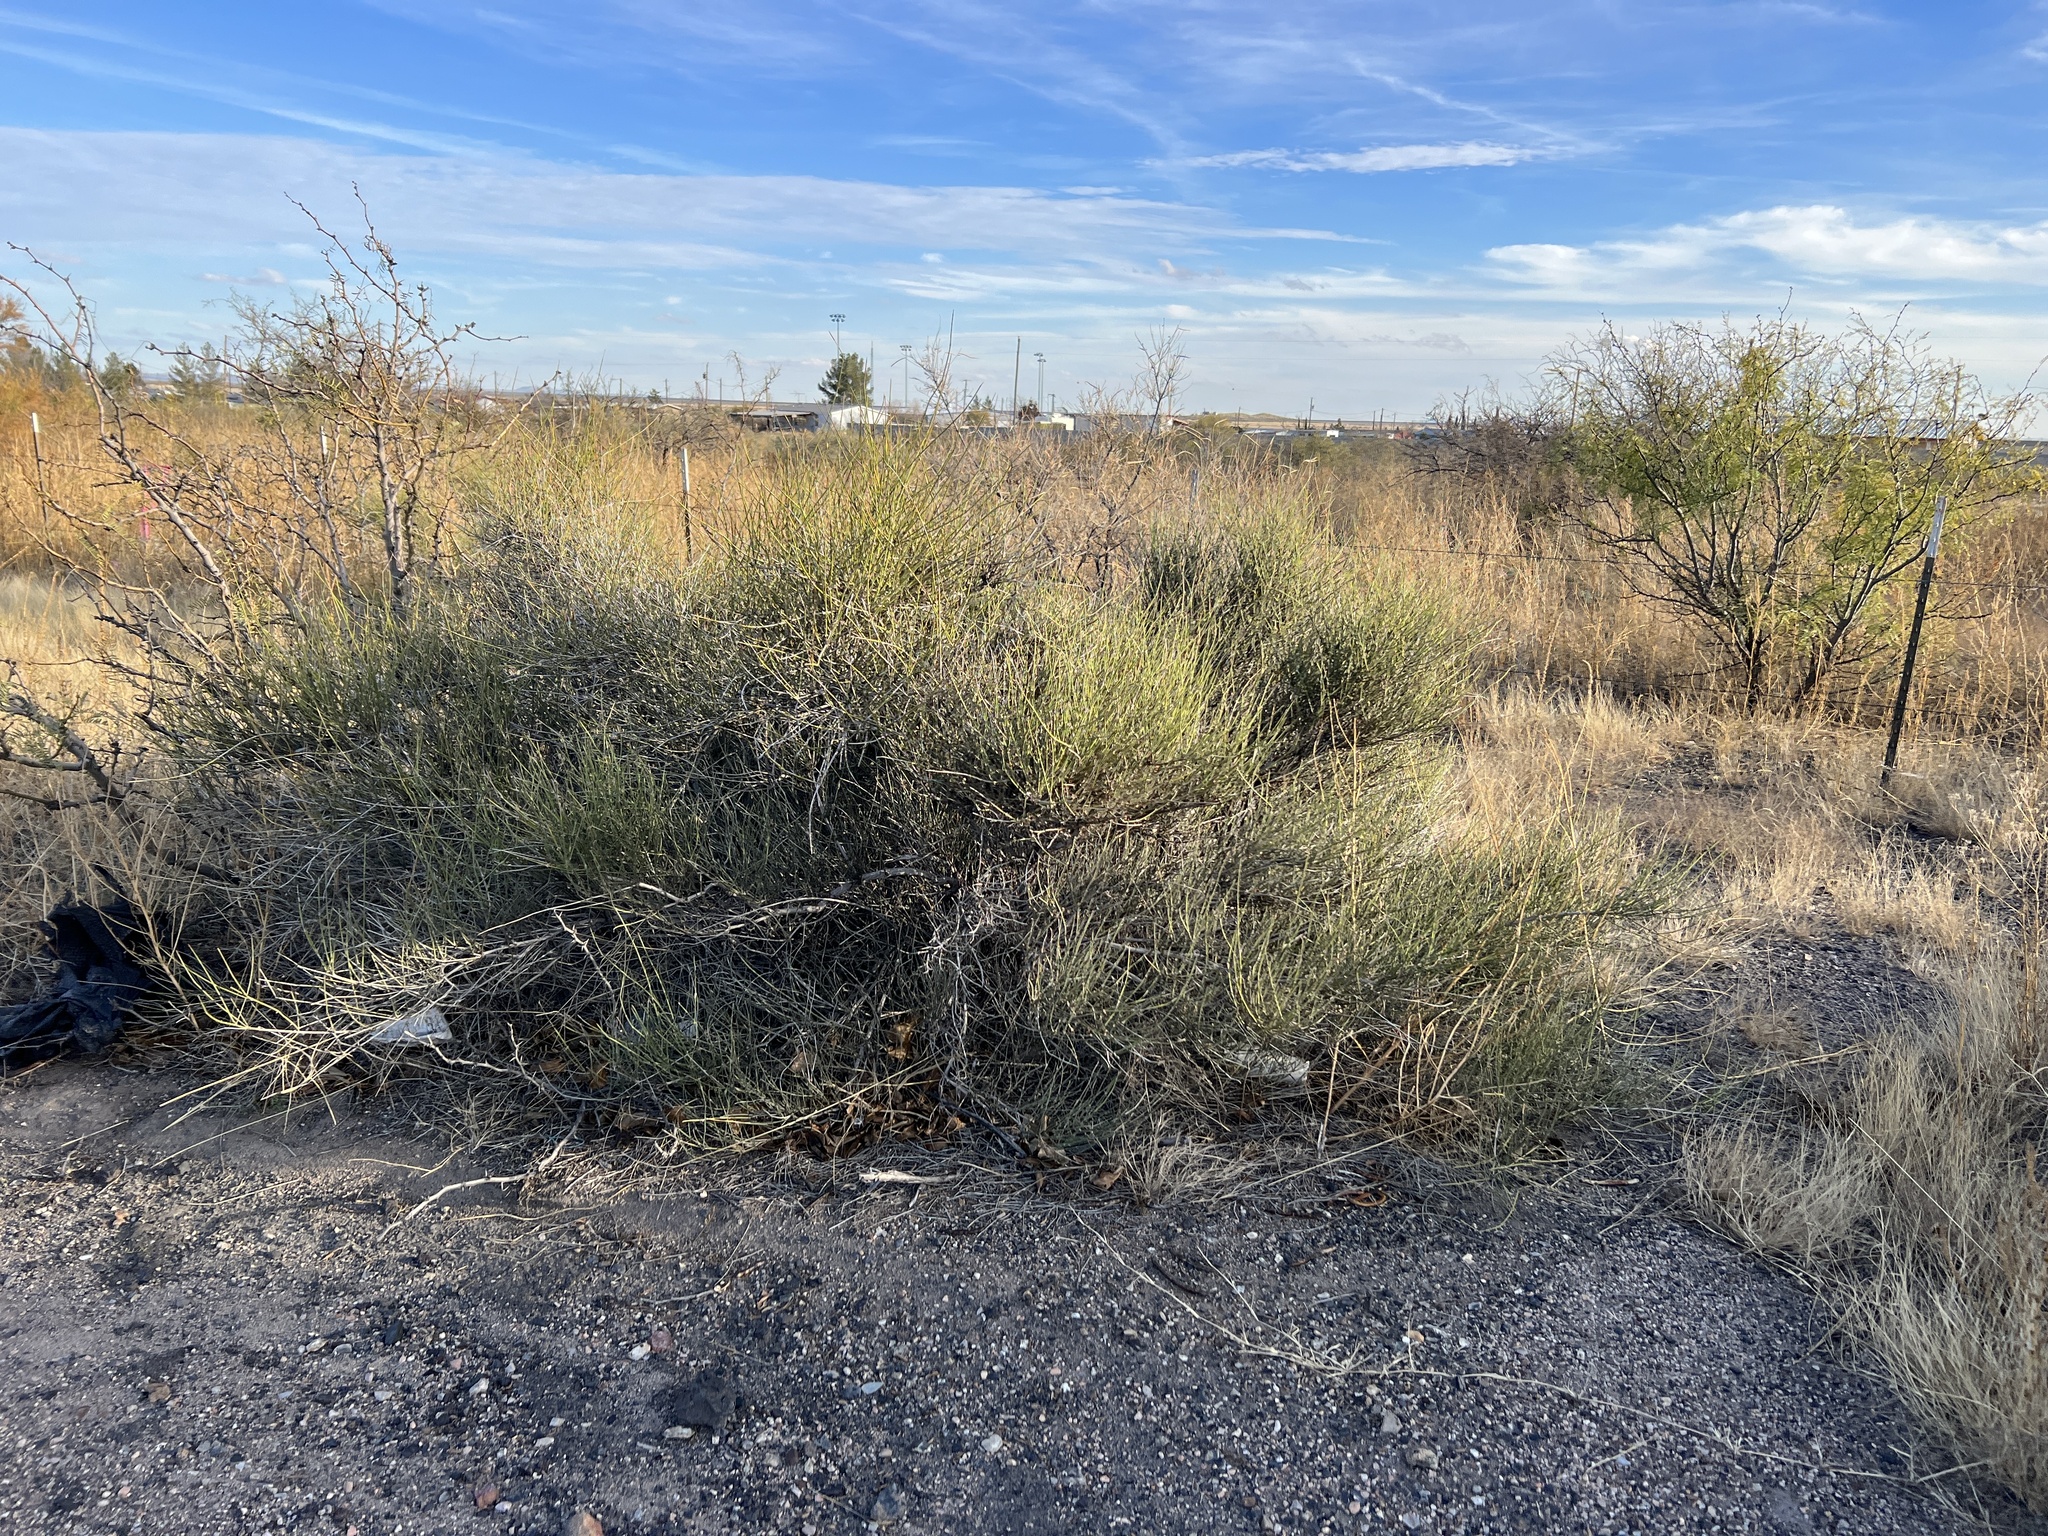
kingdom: Plantae
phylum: Tracheophyta
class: Gnetopsida
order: Ephedrales
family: Ephedraceae
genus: Ephedra
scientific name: Ephedra trifurca
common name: Mexican-tea
